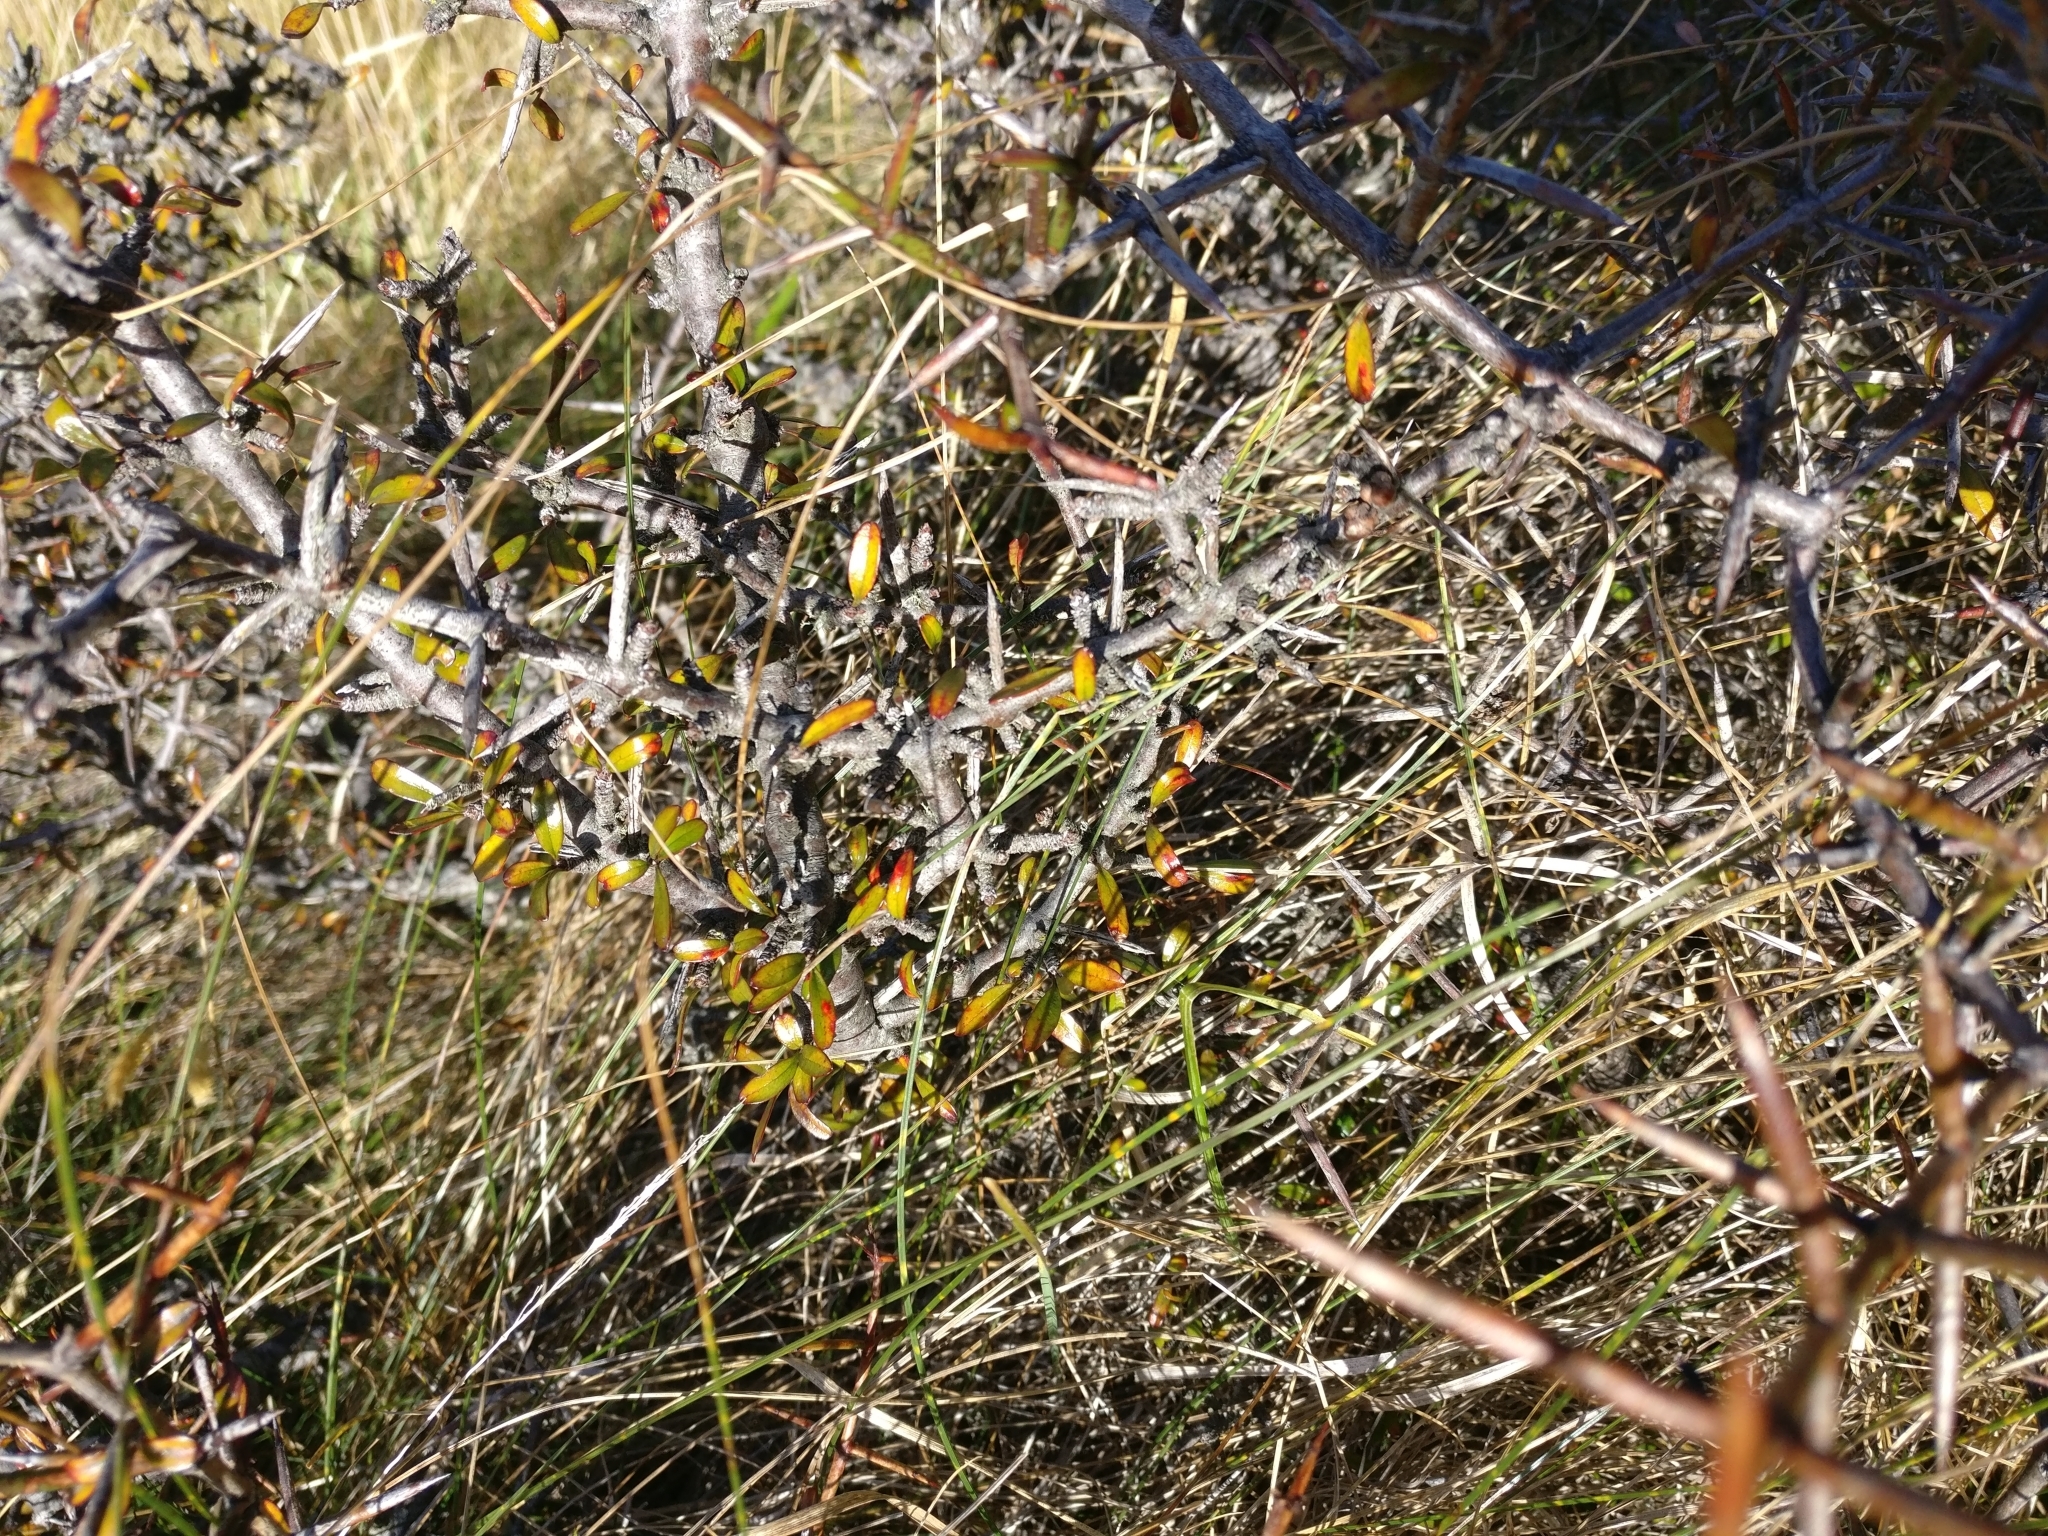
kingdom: Plantae
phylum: Tracheophyta
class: Magnoliopsida
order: Rosales
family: Rhamnaceae
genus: Discaria
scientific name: Discaria toumatou
